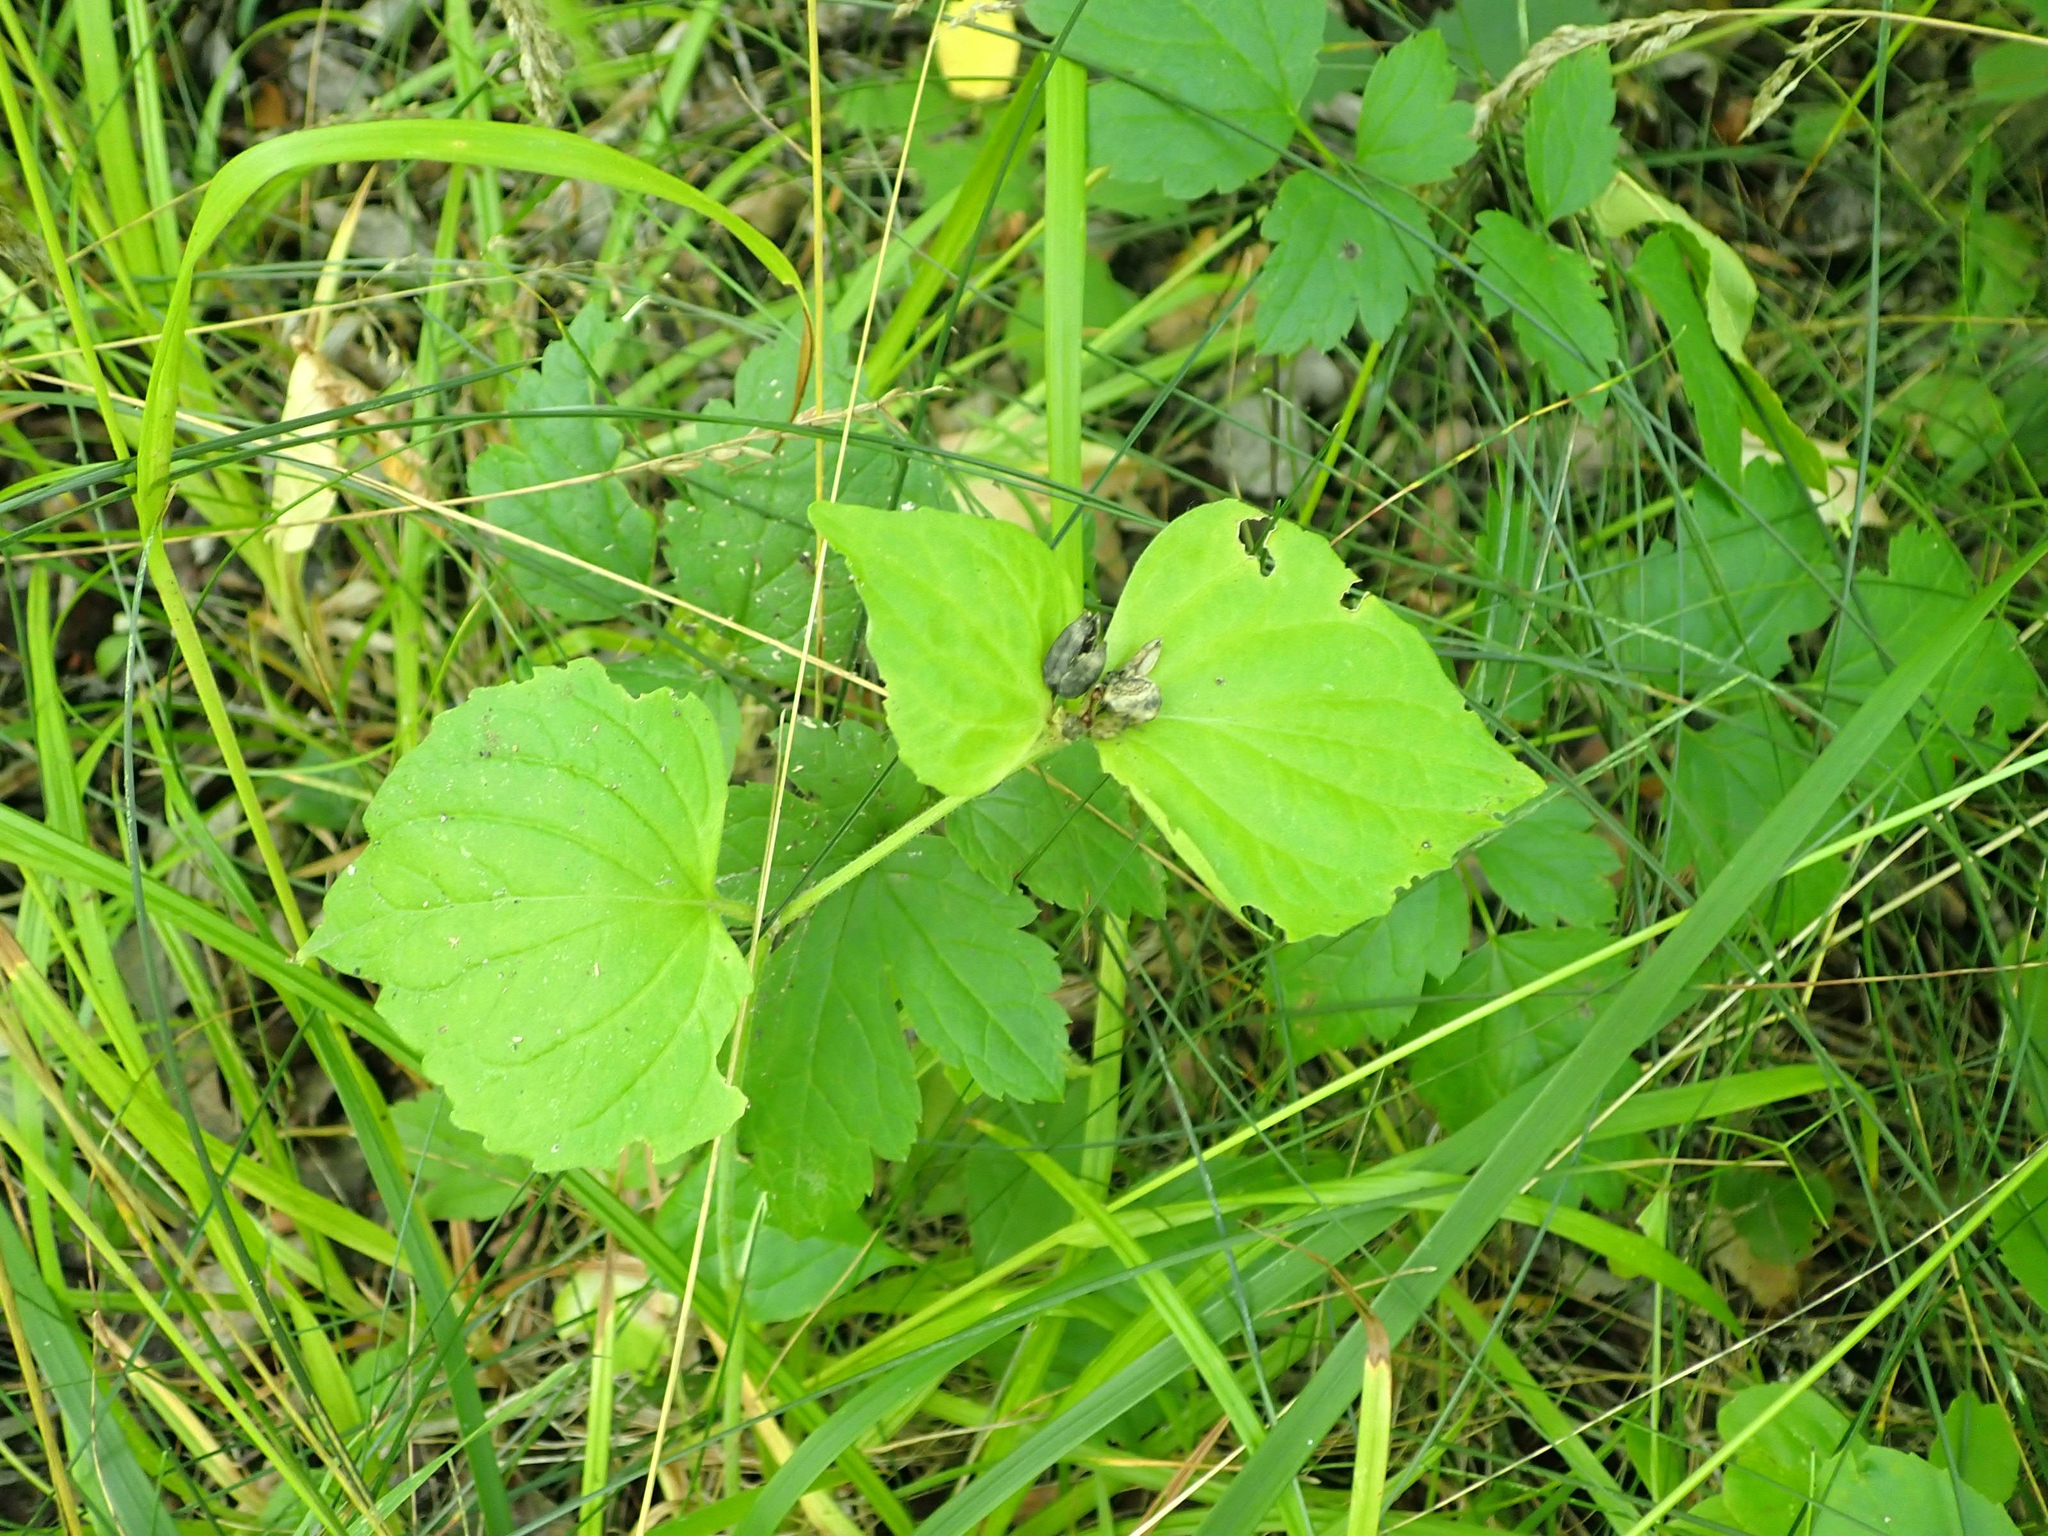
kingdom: Plantae
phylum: Tracheophyta
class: Magnoliopsida
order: Malpighiales
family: Violaceae
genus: Viola
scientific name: Viola eriocarpa
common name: Smooth yellow violet
